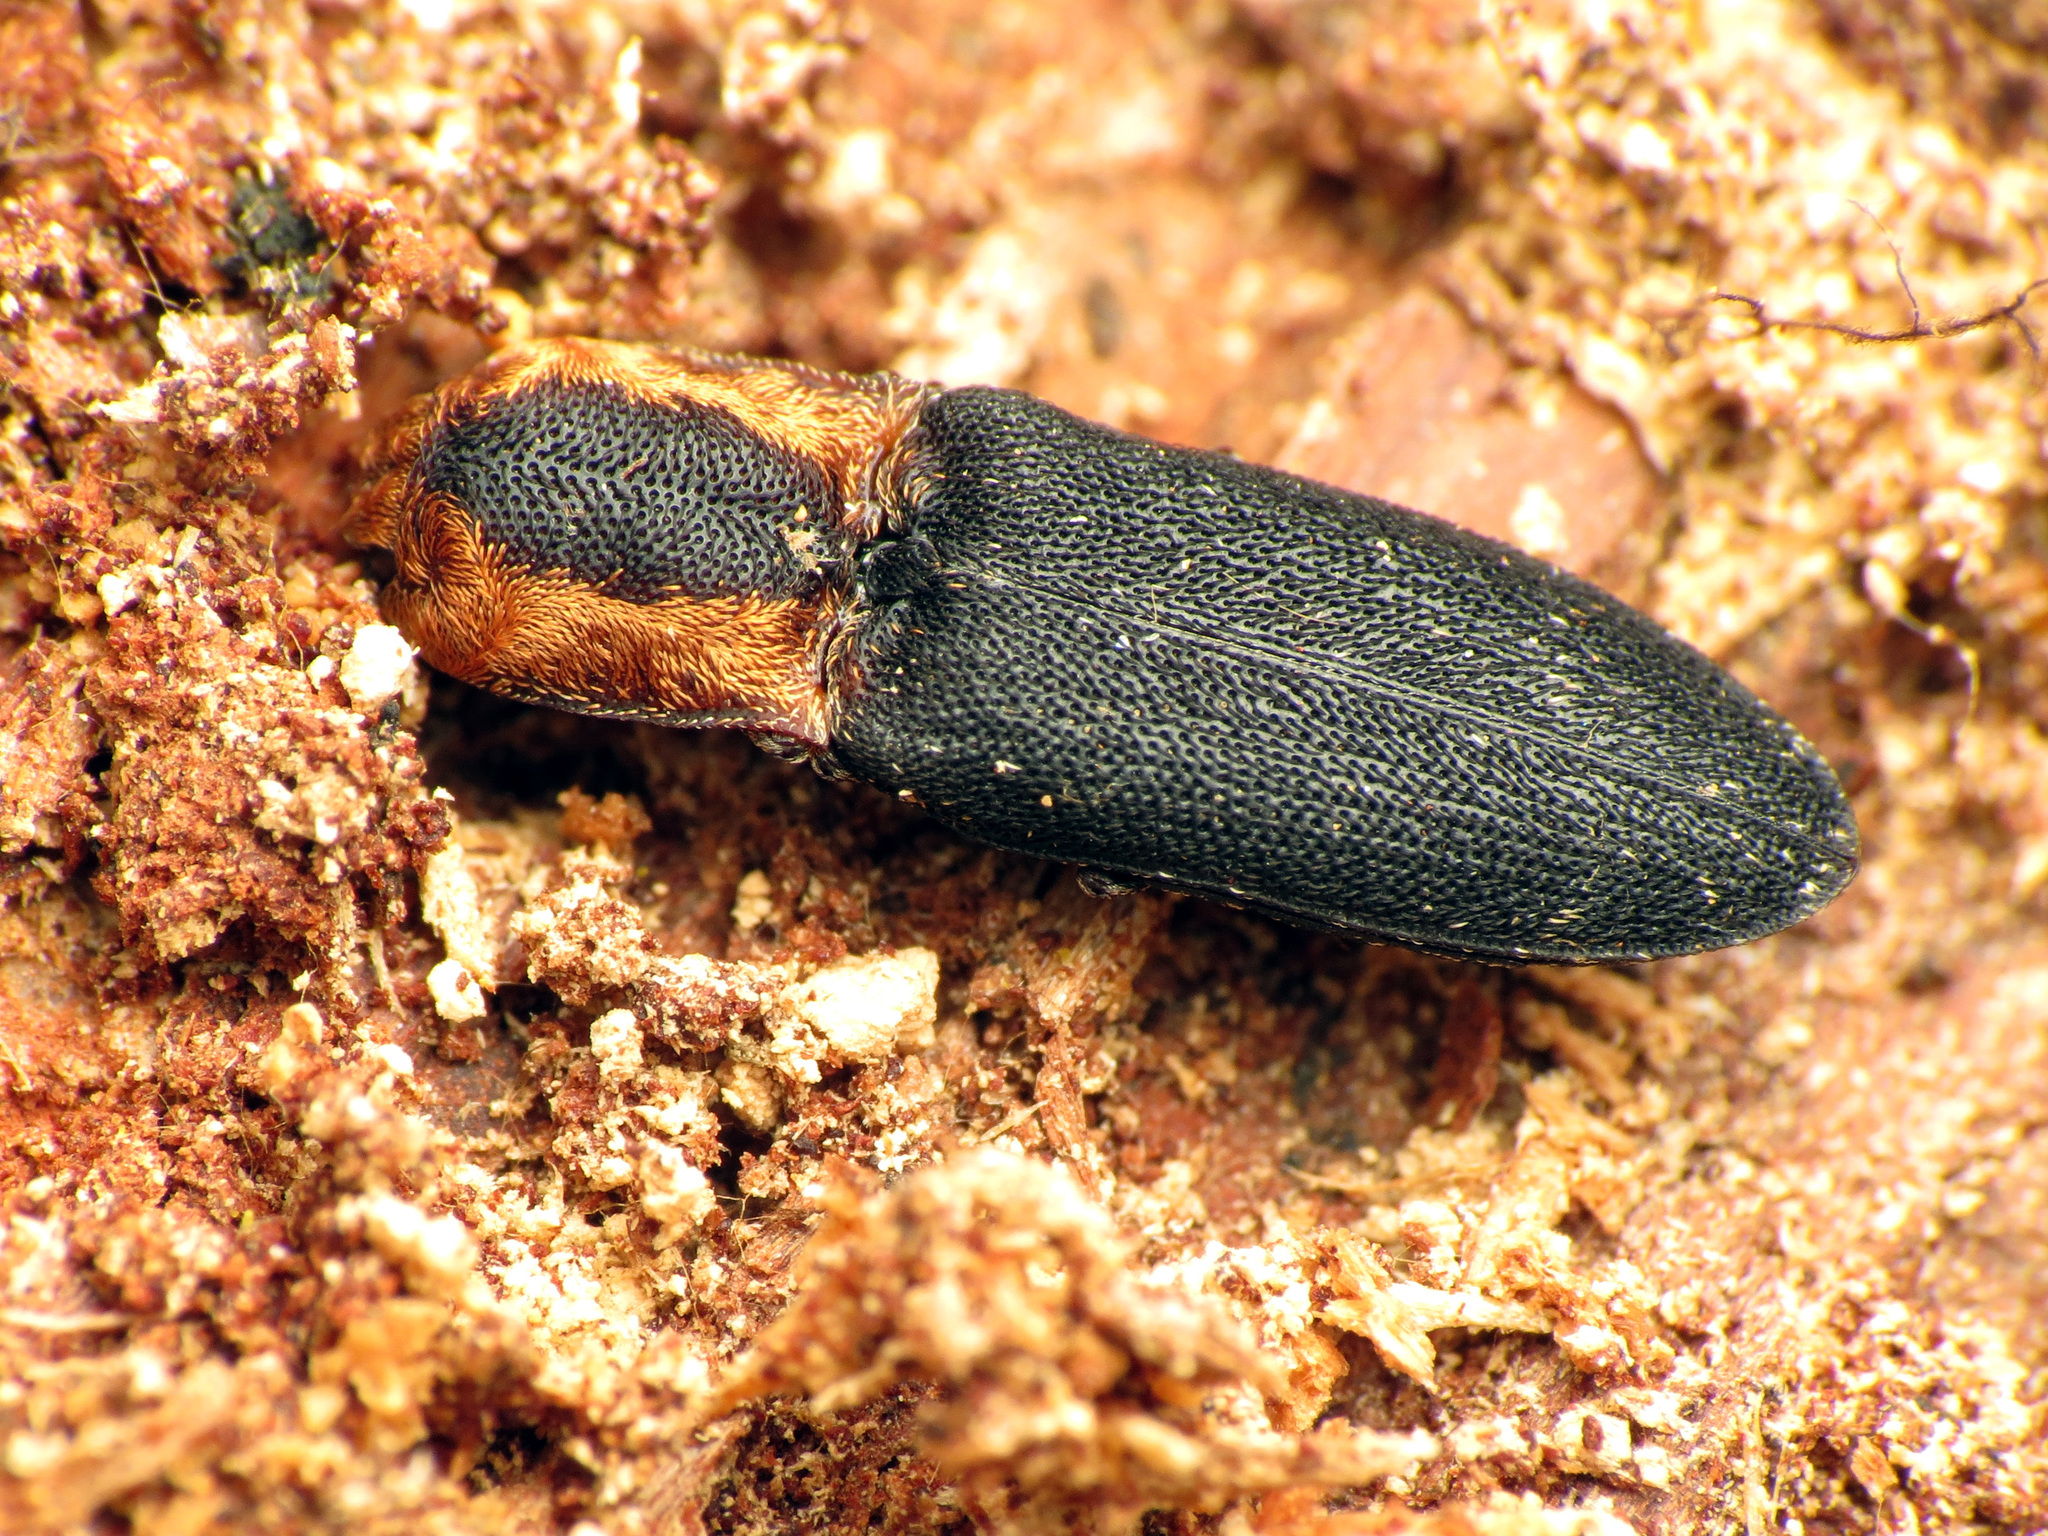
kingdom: Animalia
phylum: Arthropoda
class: Insecta
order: Coleoptera
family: Elateridae
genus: Lacon
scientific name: Lacon discoideus
